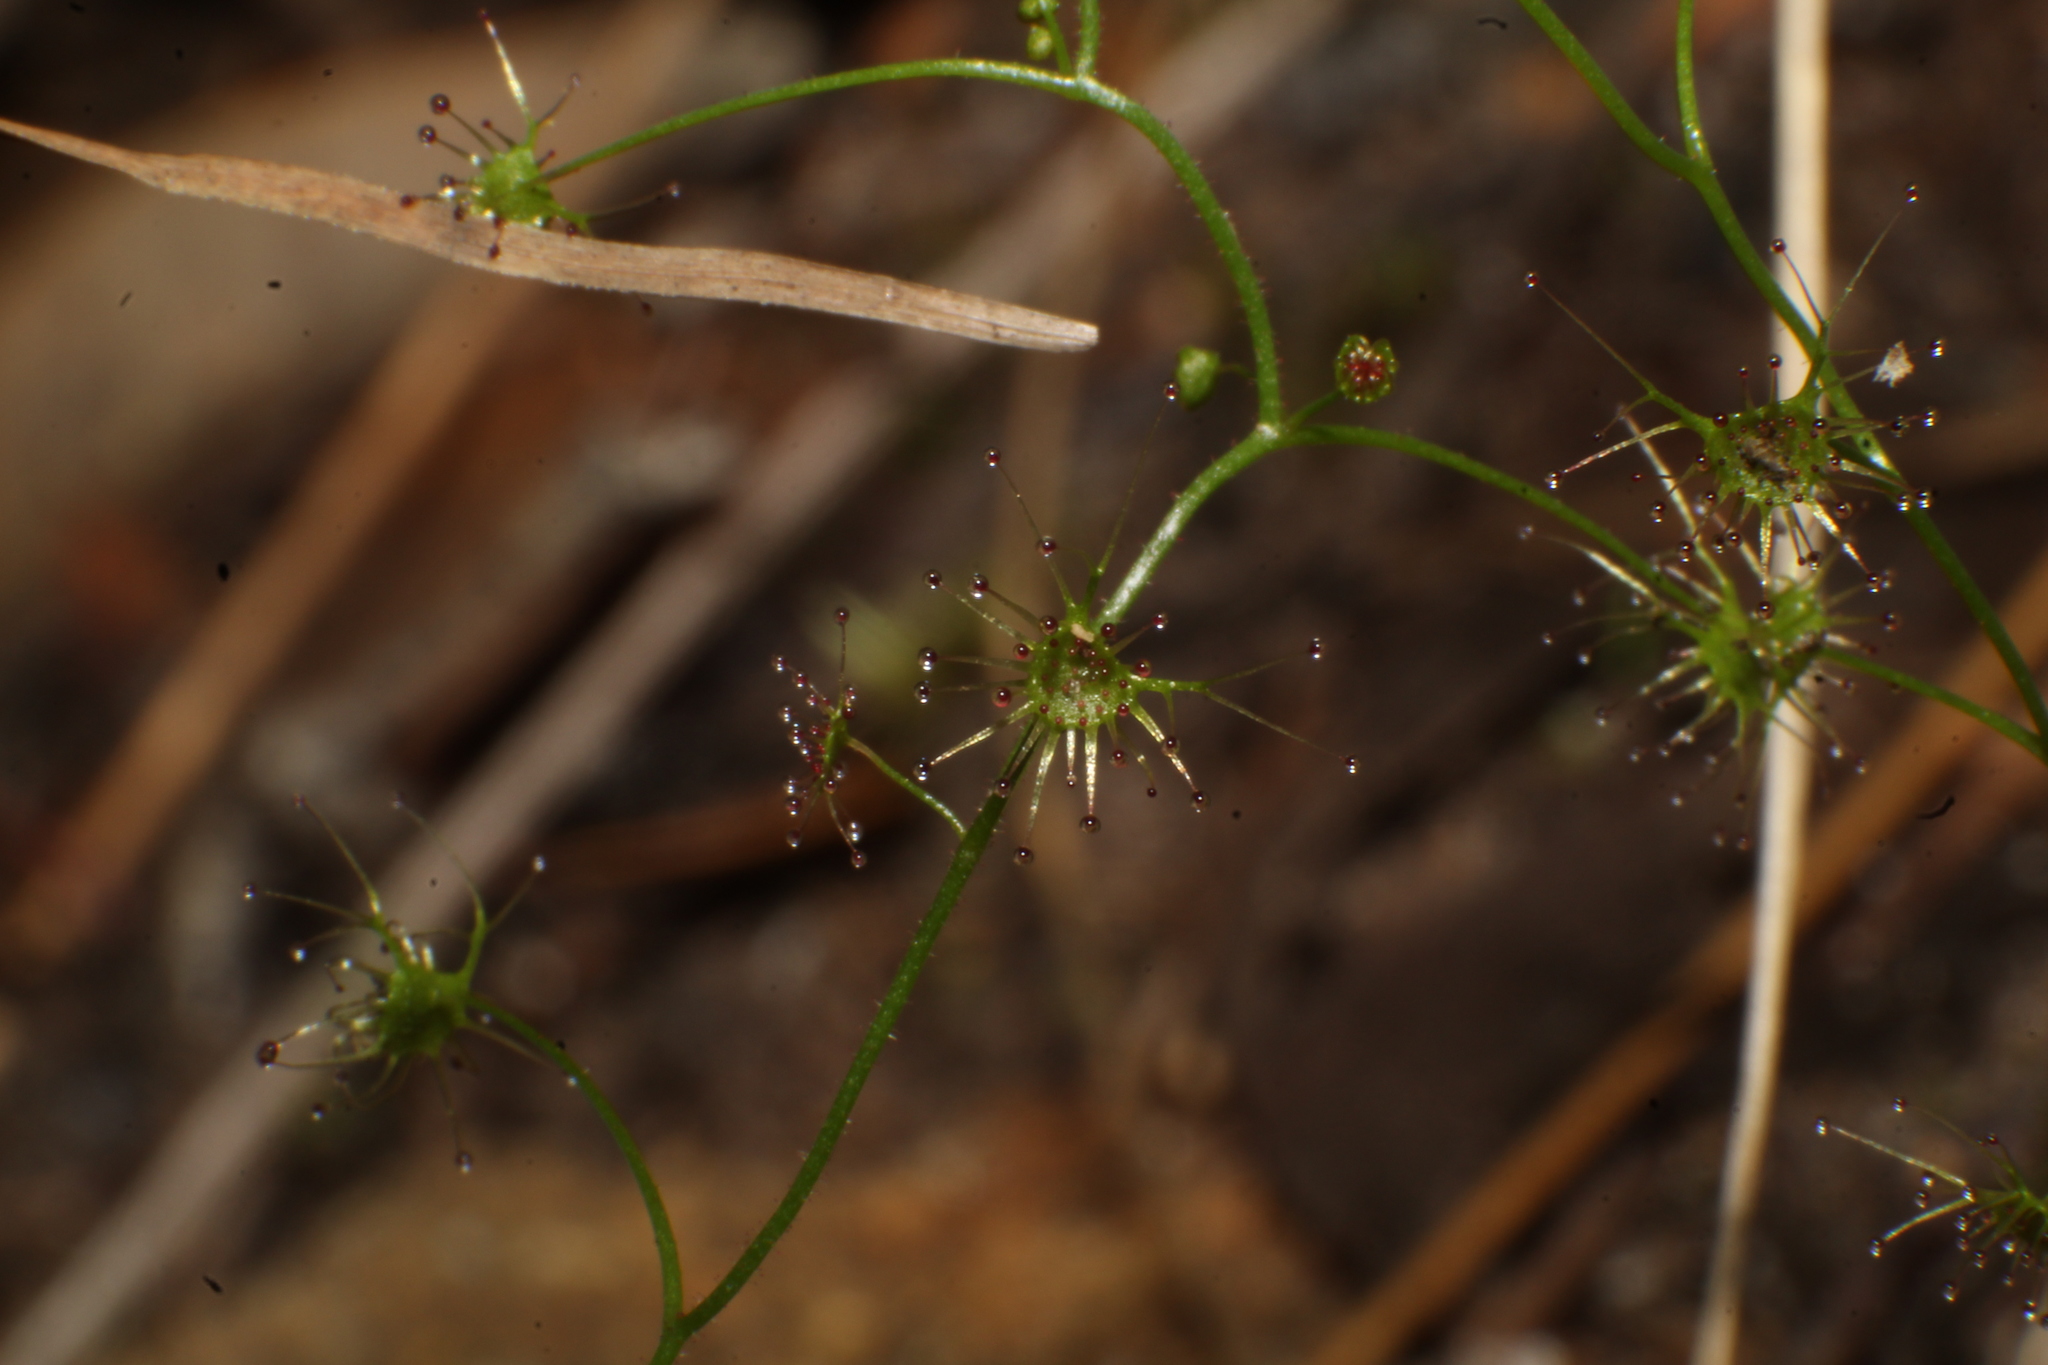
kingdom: Plantae
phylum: Tracheophyta
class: Magnoliopsida
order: Caryophyllales
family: Droseraceae
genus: Drosera
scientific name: Drosera modesta
